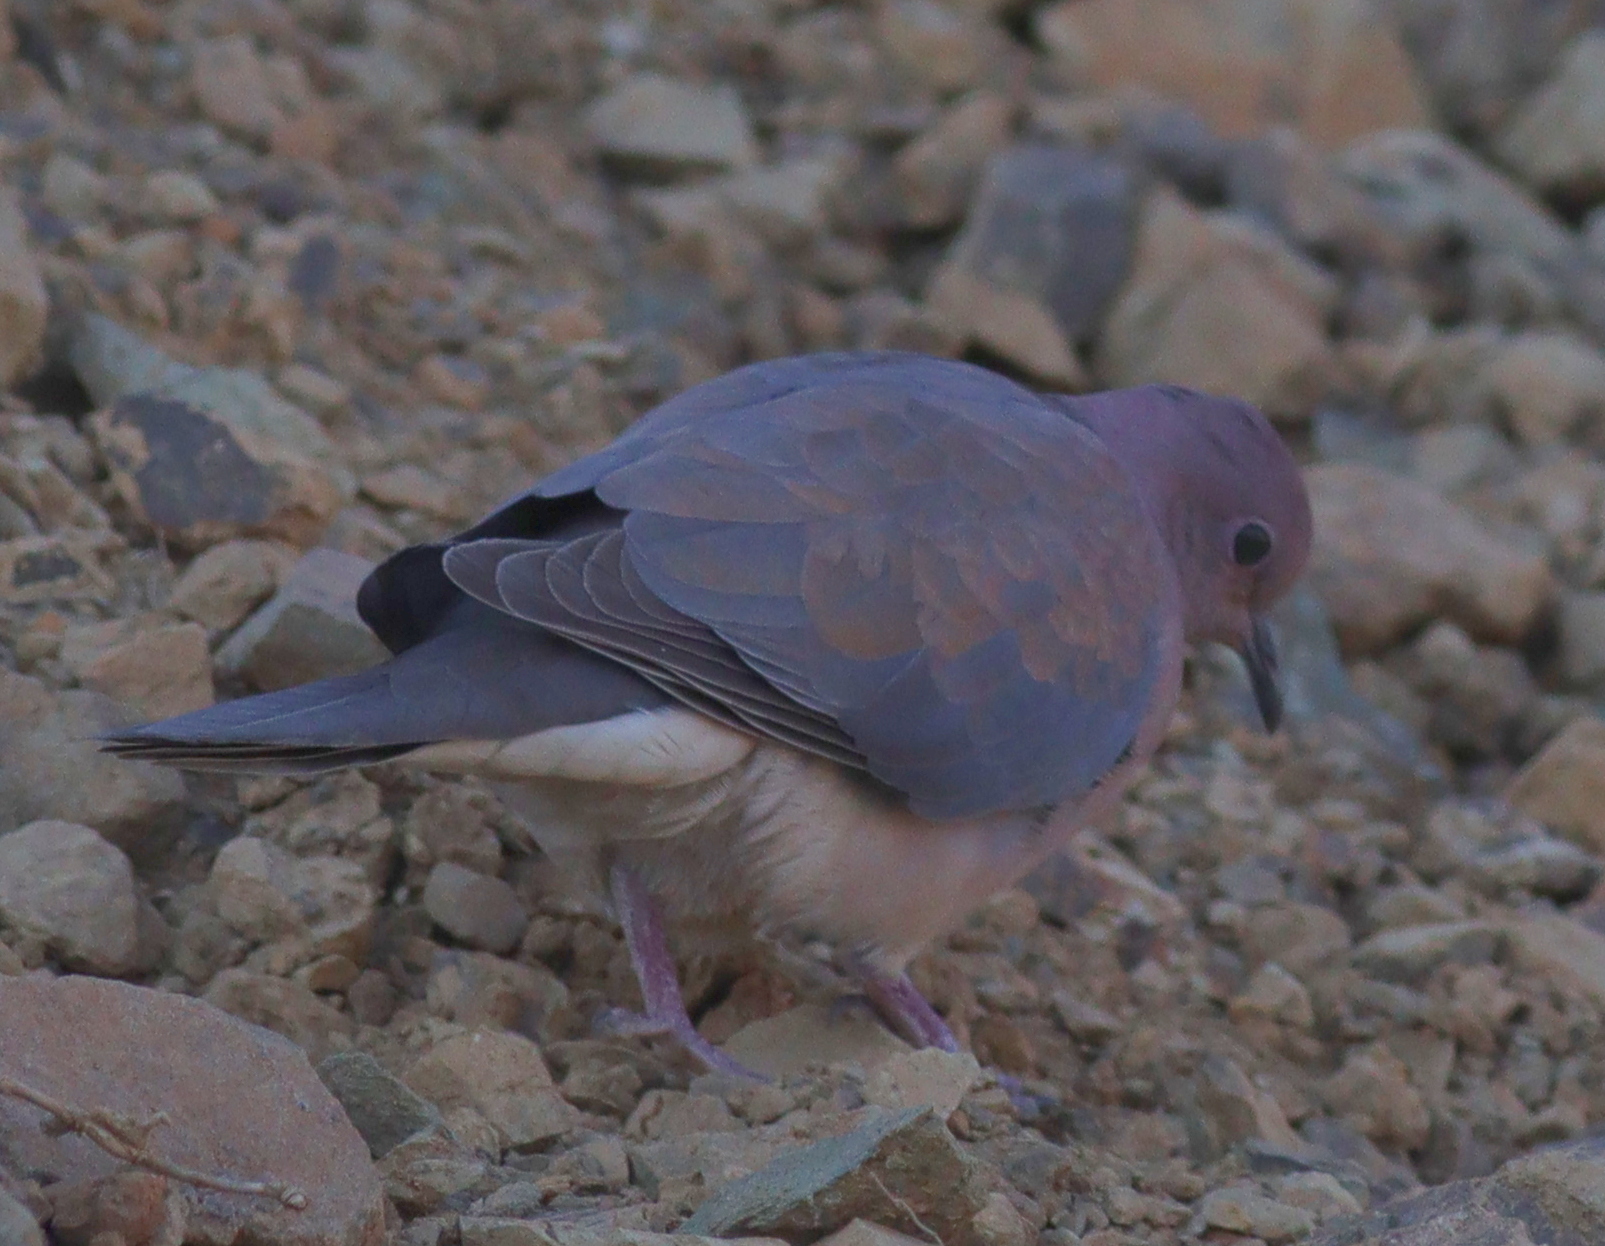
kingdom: Animalia
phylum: Chordata
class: Aves
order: Columbiformes
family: Columbidae
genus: Spilopelia
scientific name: Spilopelia senegalensis
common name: Laughing dove
